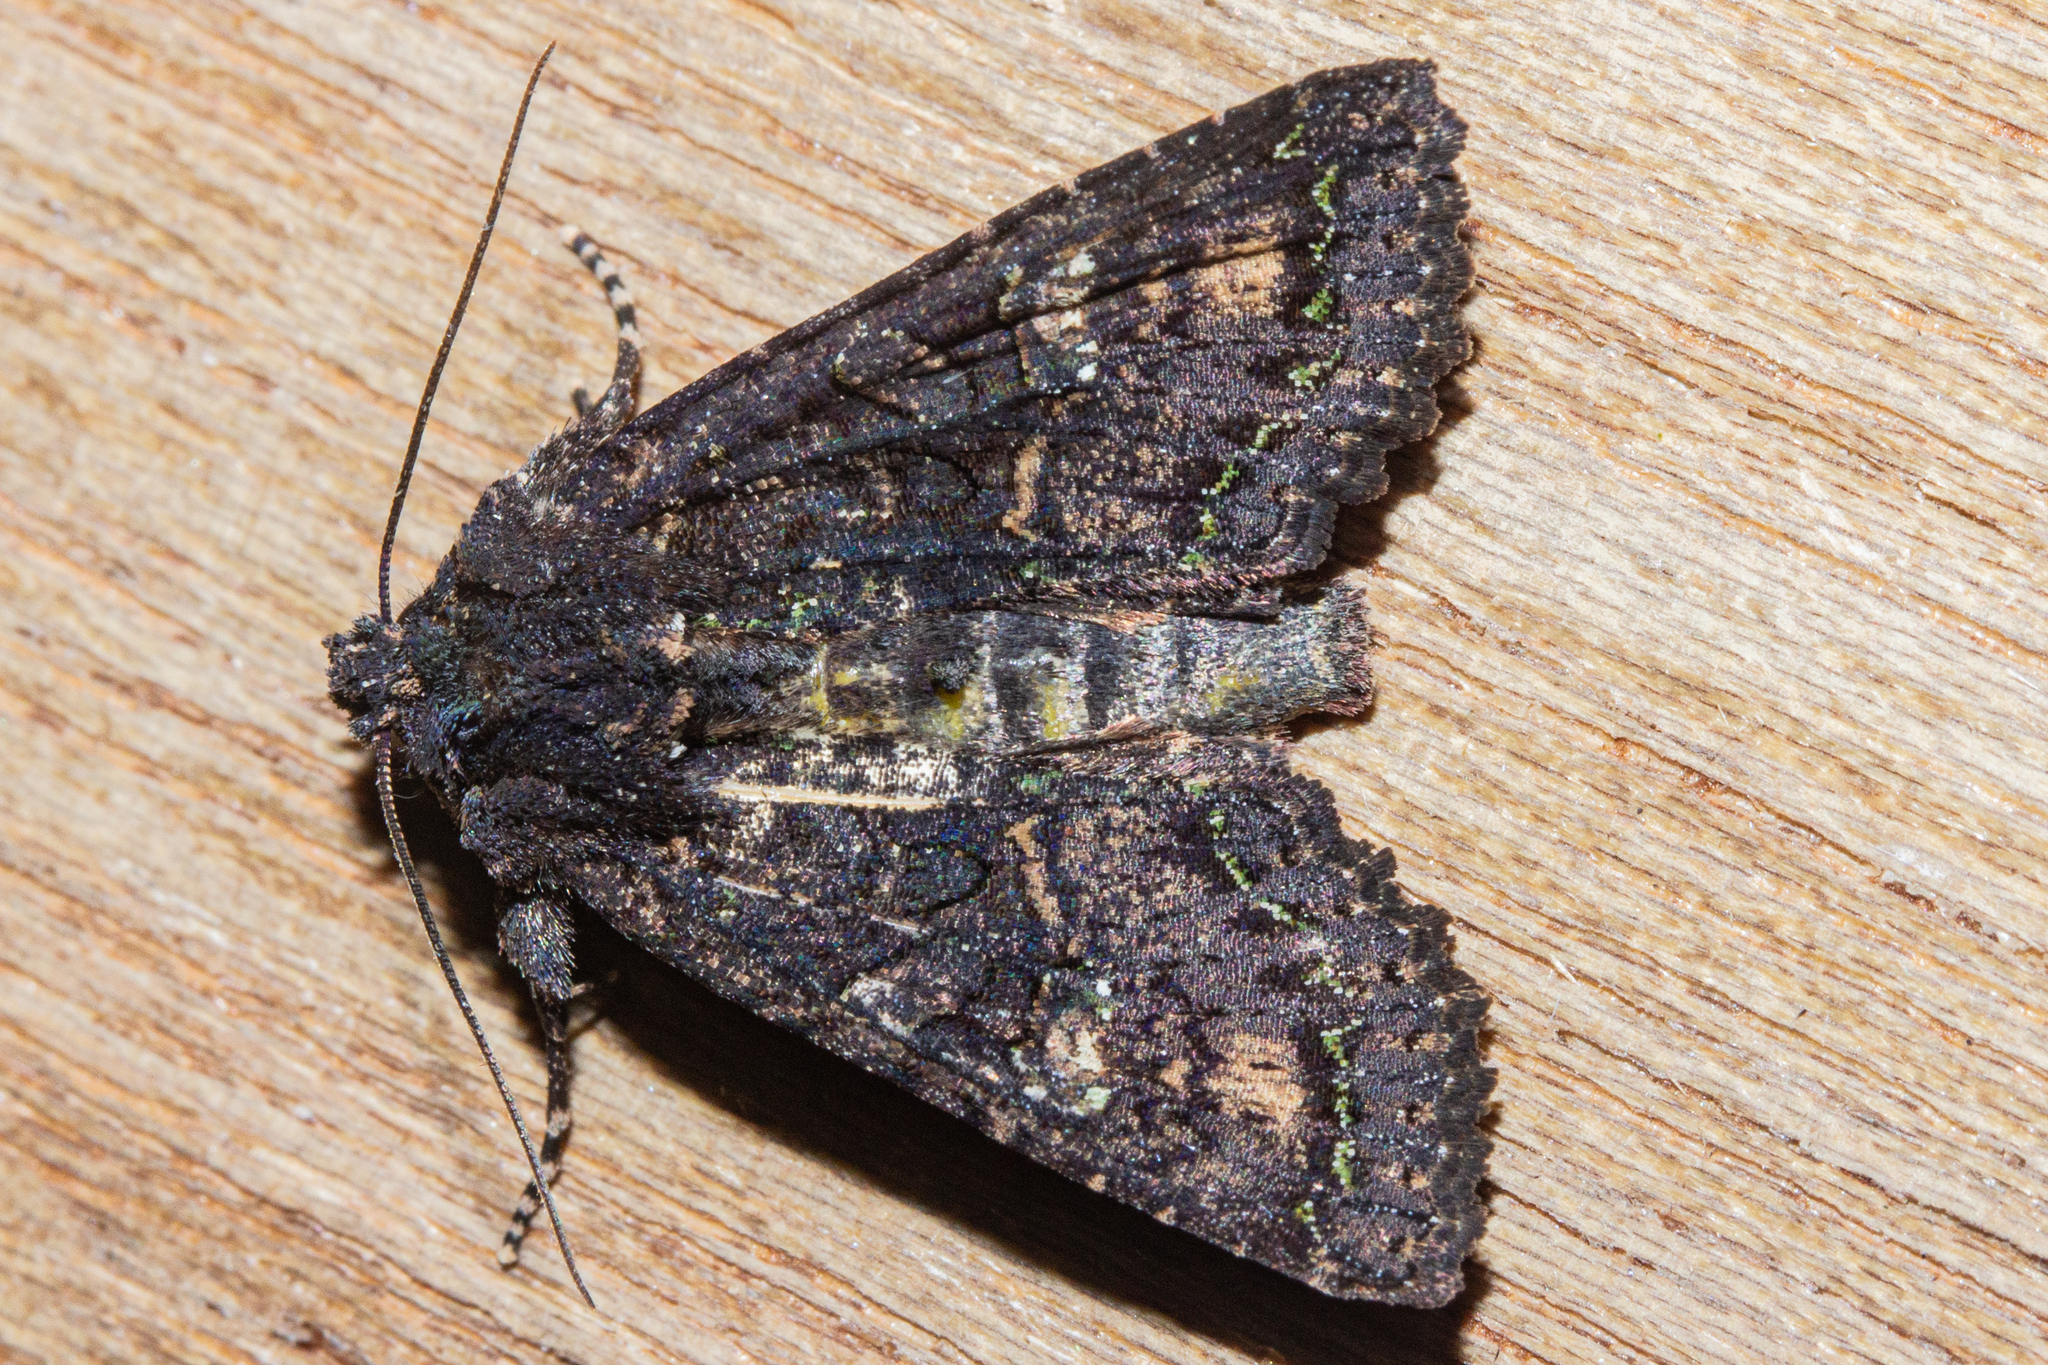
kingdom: Animalia
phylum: Arthropoda
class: Insecta
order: Lepidoptera
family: Noctuidae
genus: Meterana
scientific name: Meterana ochthistis
